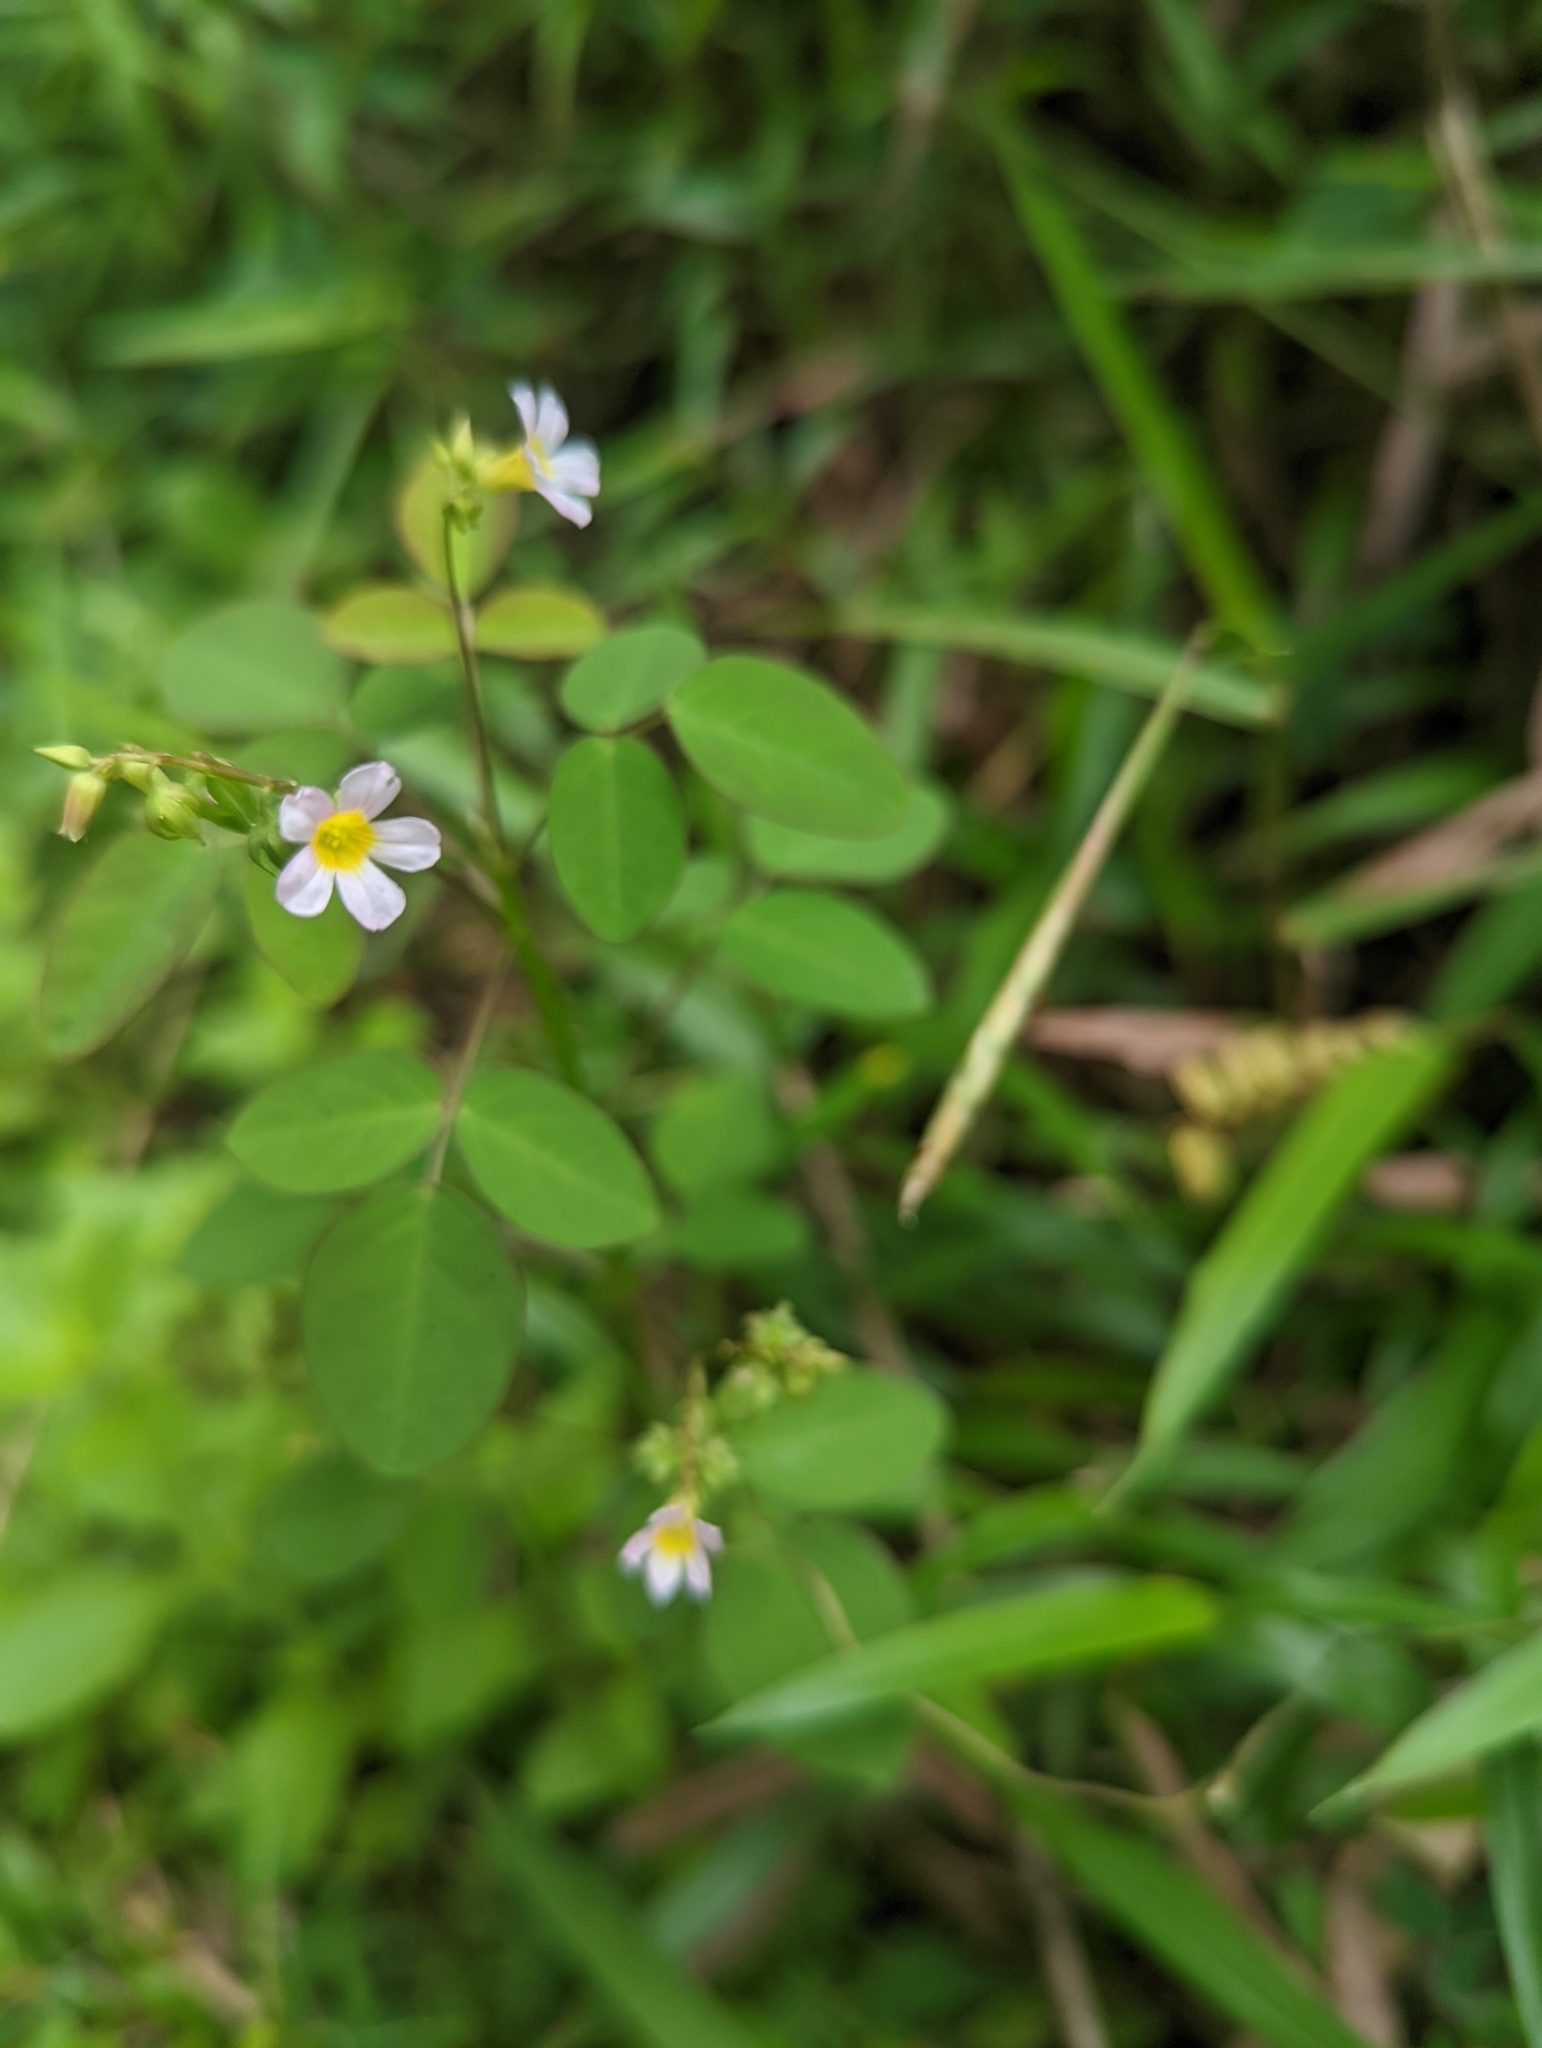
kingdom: Plantae
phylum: Tracheophyta
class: Magnoliopsida
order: Oxalidales
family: Oxalidaceae
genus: Oxalis
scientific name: Oxalis barrelieri
